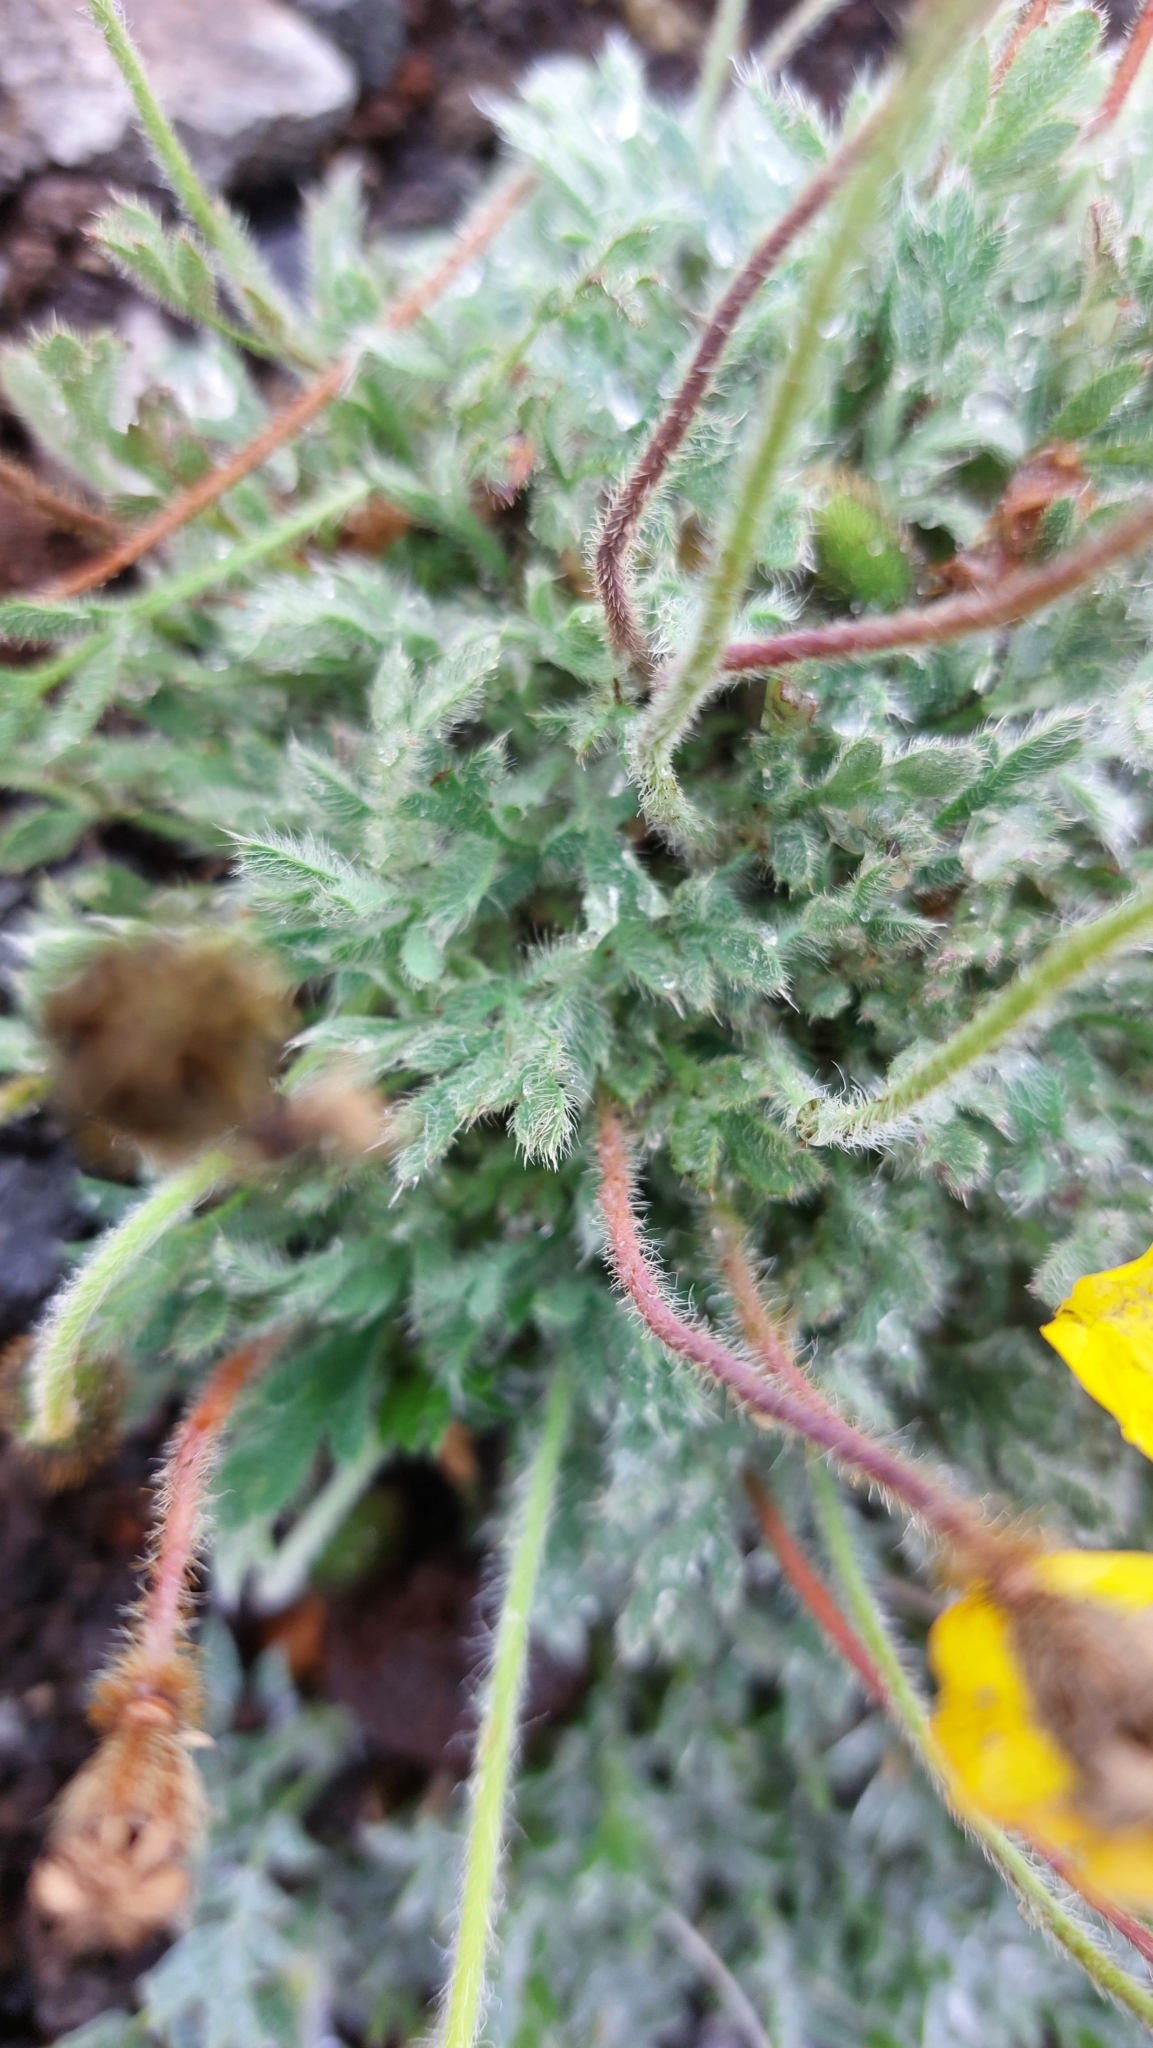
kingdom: Plantae
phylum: Tracheophyta
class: Magnoliopsida
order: Ranunculales
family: Papaveraceae
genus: Papaver
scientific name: Papaver microcarpum
